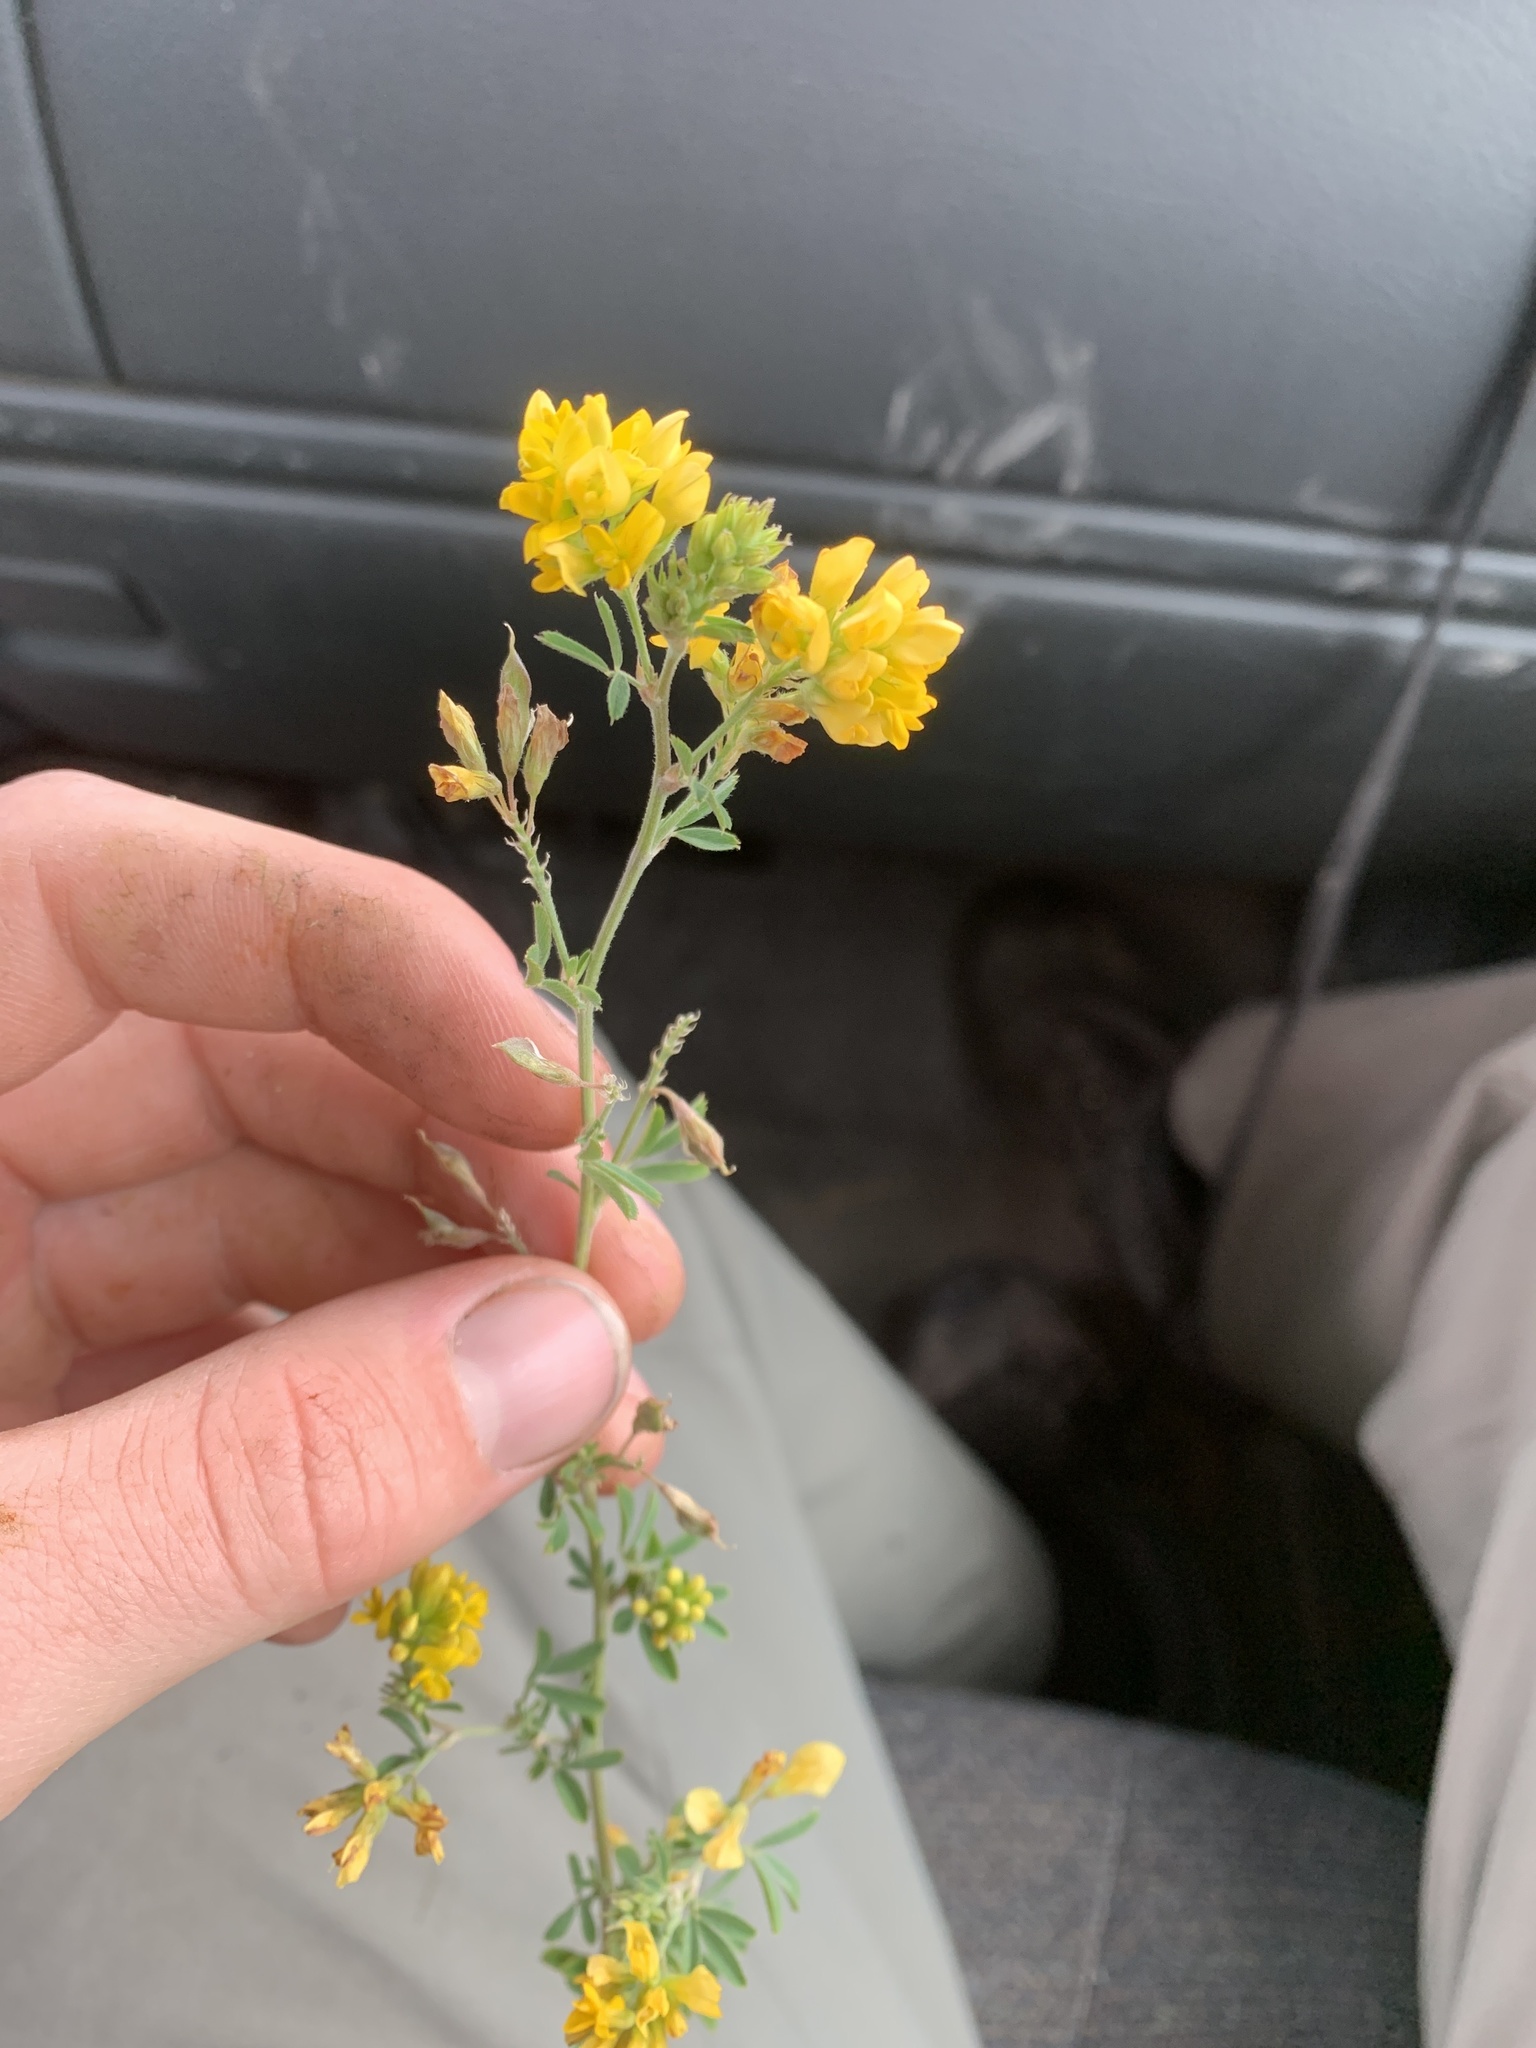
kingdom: Plantae
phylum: Tracheophyta
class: Magnoliopsida
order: Fabales
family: Fabaceae
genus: Medicago
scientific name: Medicago falcata
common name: Sickle medick
